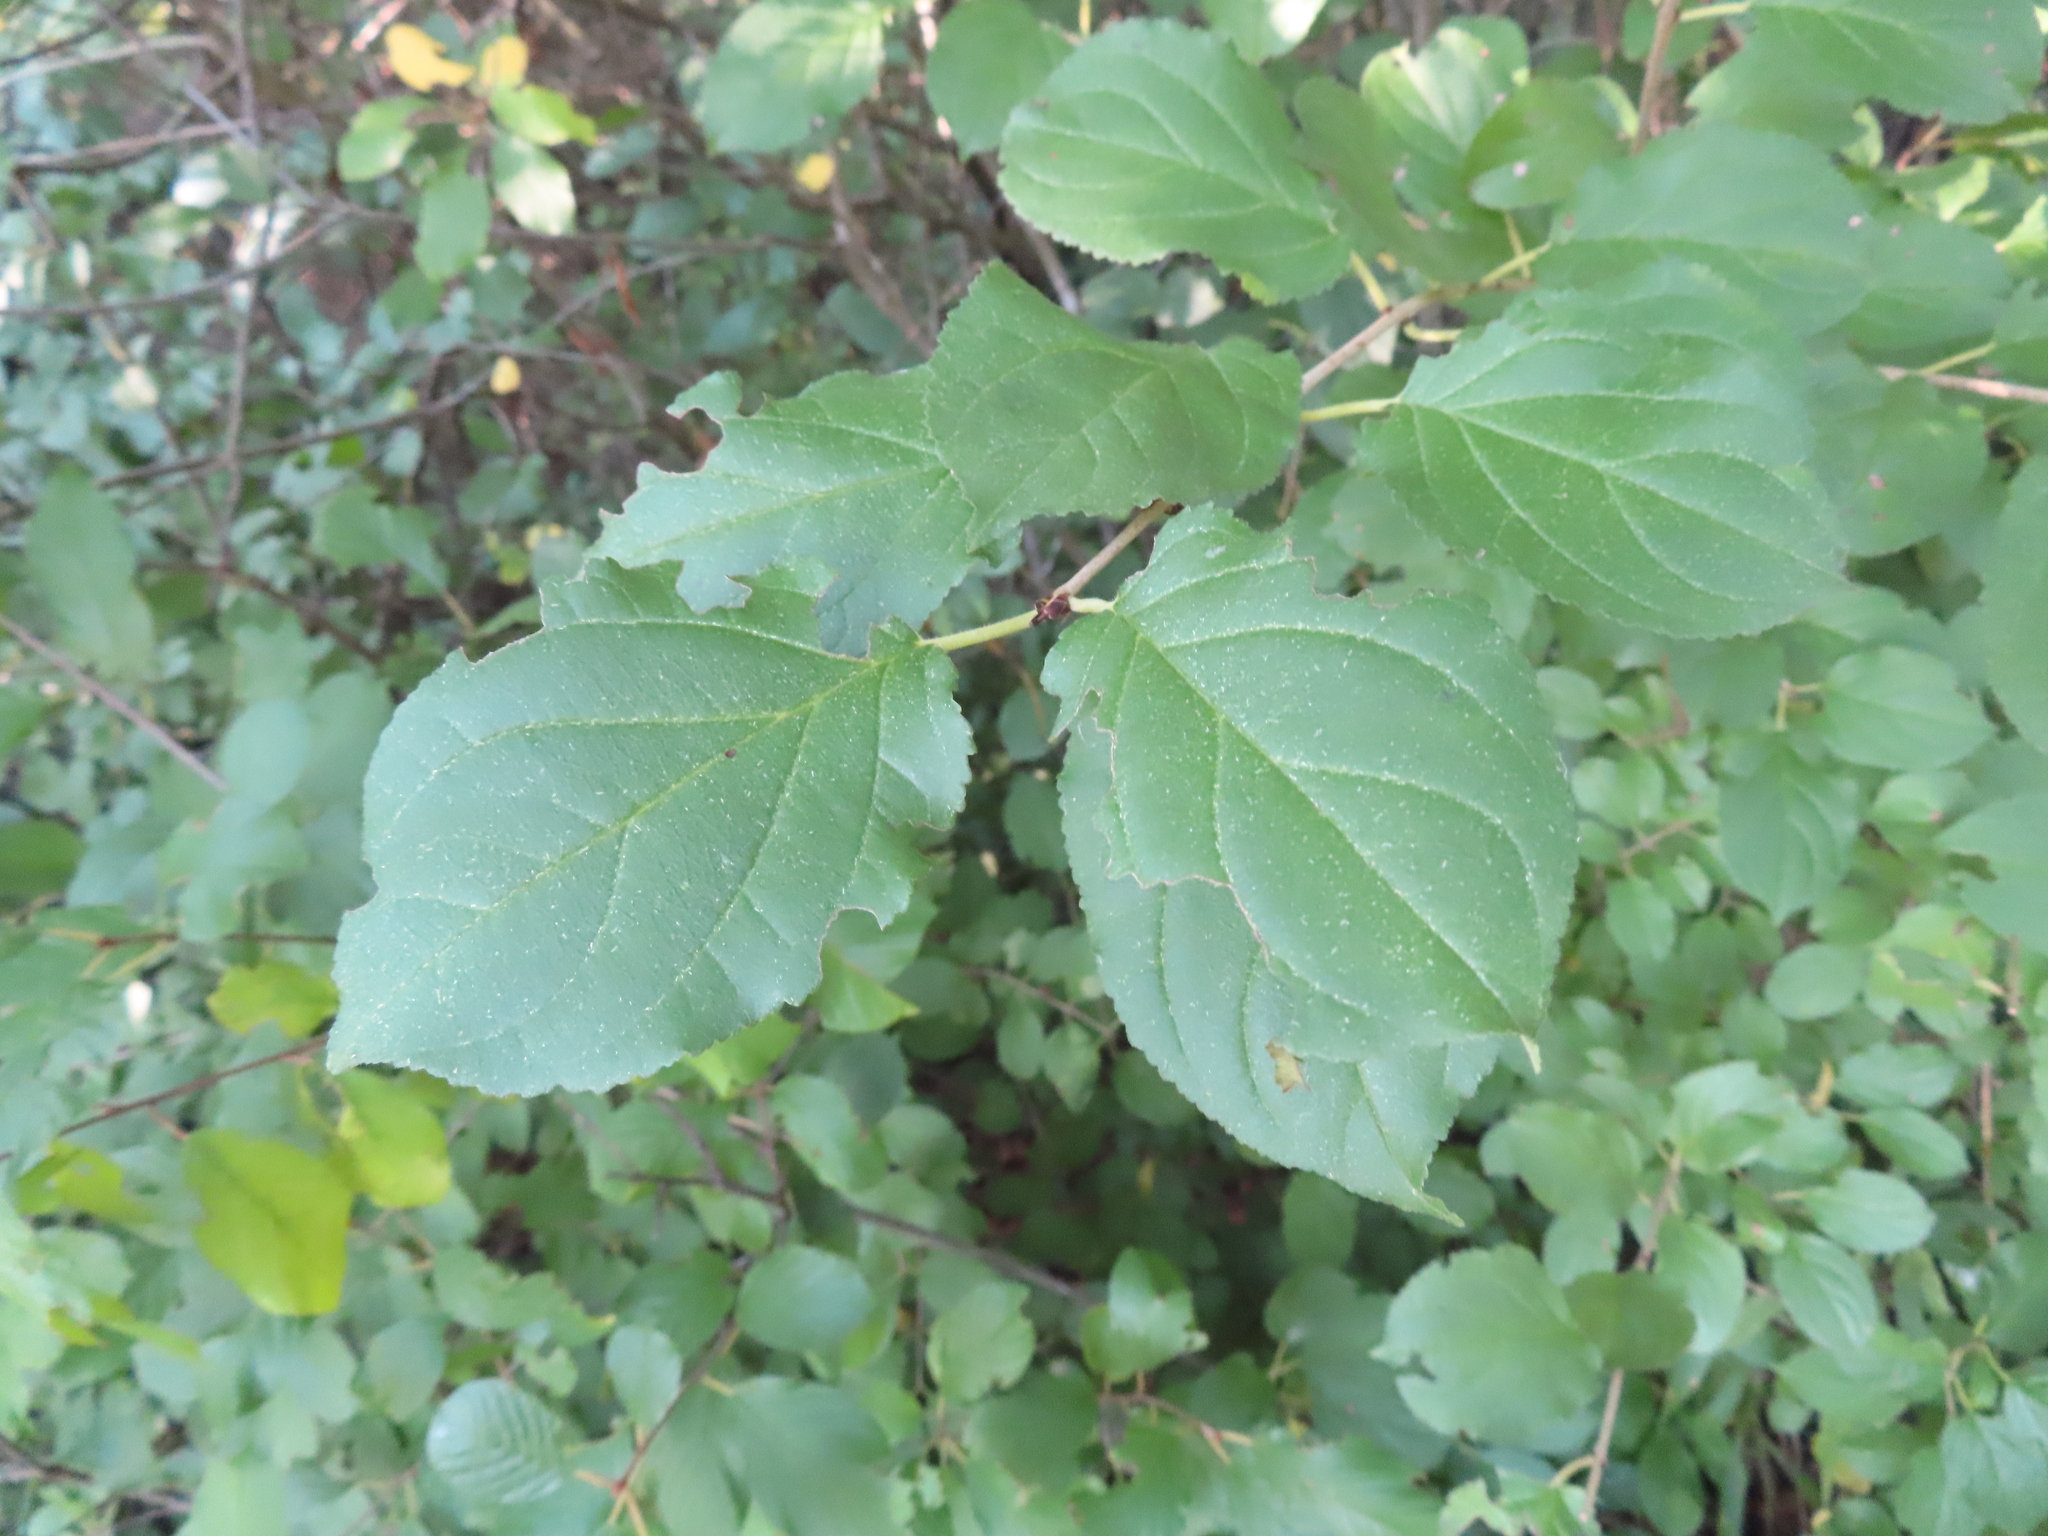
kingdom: Plantae
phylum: Tracheophyta
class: Magnoliopsida
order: Rosales
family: Rhamnaceae
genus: Rhamnus
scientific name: Rhamnus cathartica
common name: Common buckthorn
